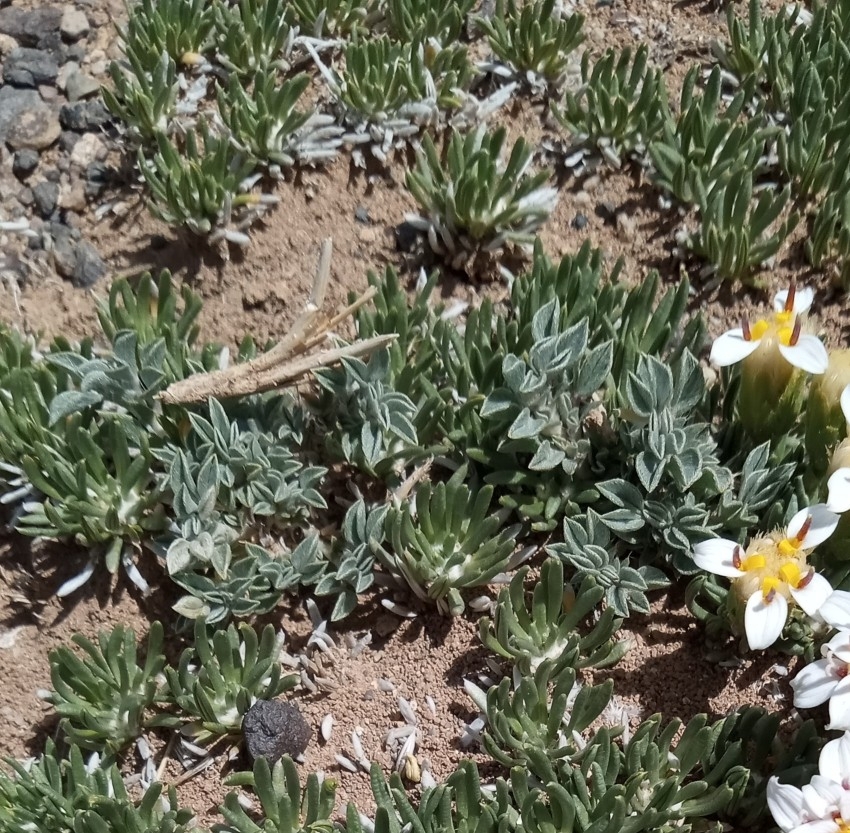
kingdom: Plantae
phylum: Tracheophyta
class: Magnoliopsida
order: Fabales
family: Fabaceae
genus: Adesmia
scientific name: Adesmia lotoides
